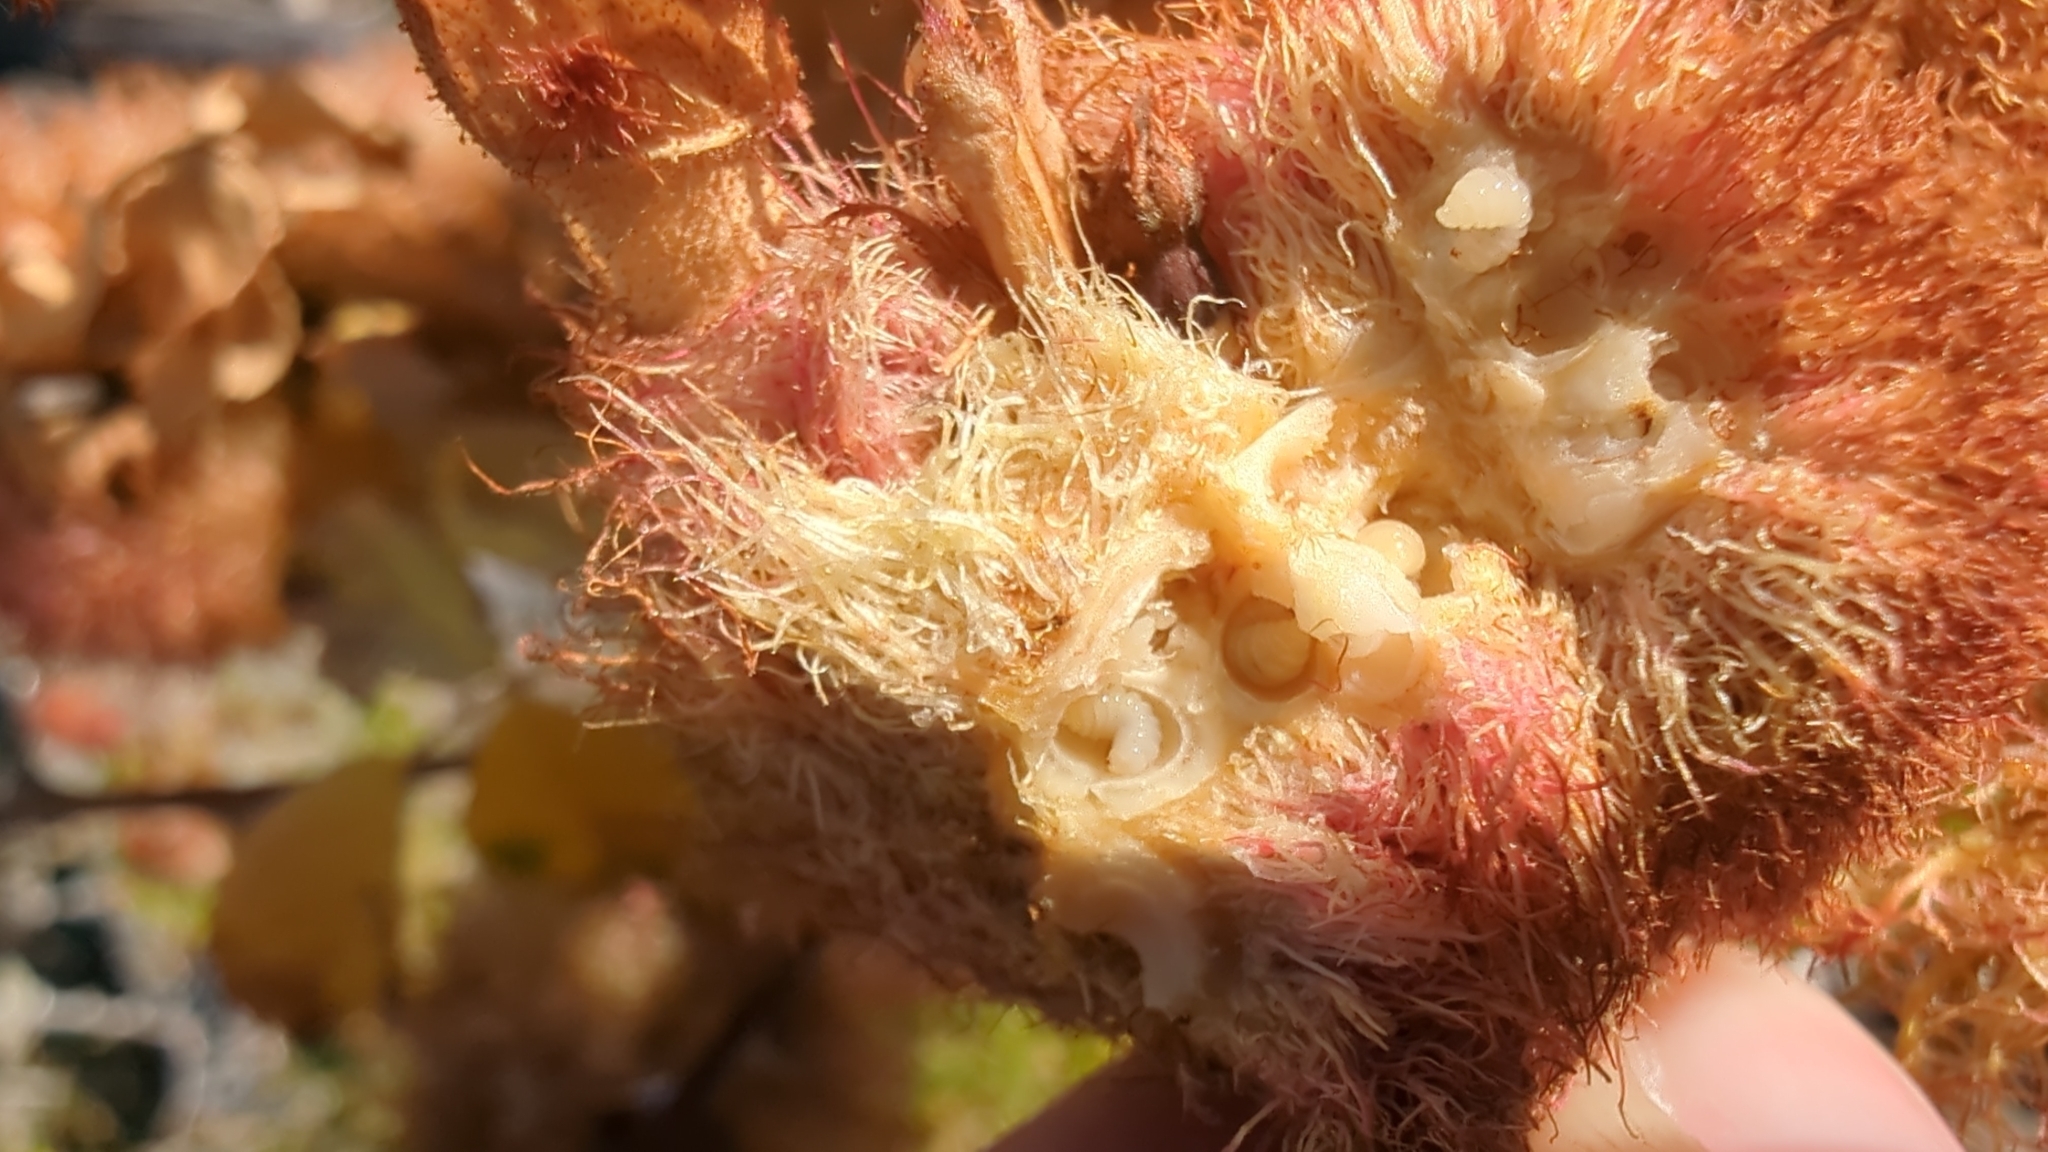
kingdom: Animalia
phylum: Arthropoda
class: Insecta
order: Hymenoptera
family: Cynipidae
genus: Diplolepis
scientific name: Diplolepis rosae
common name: Bedeguar gall
